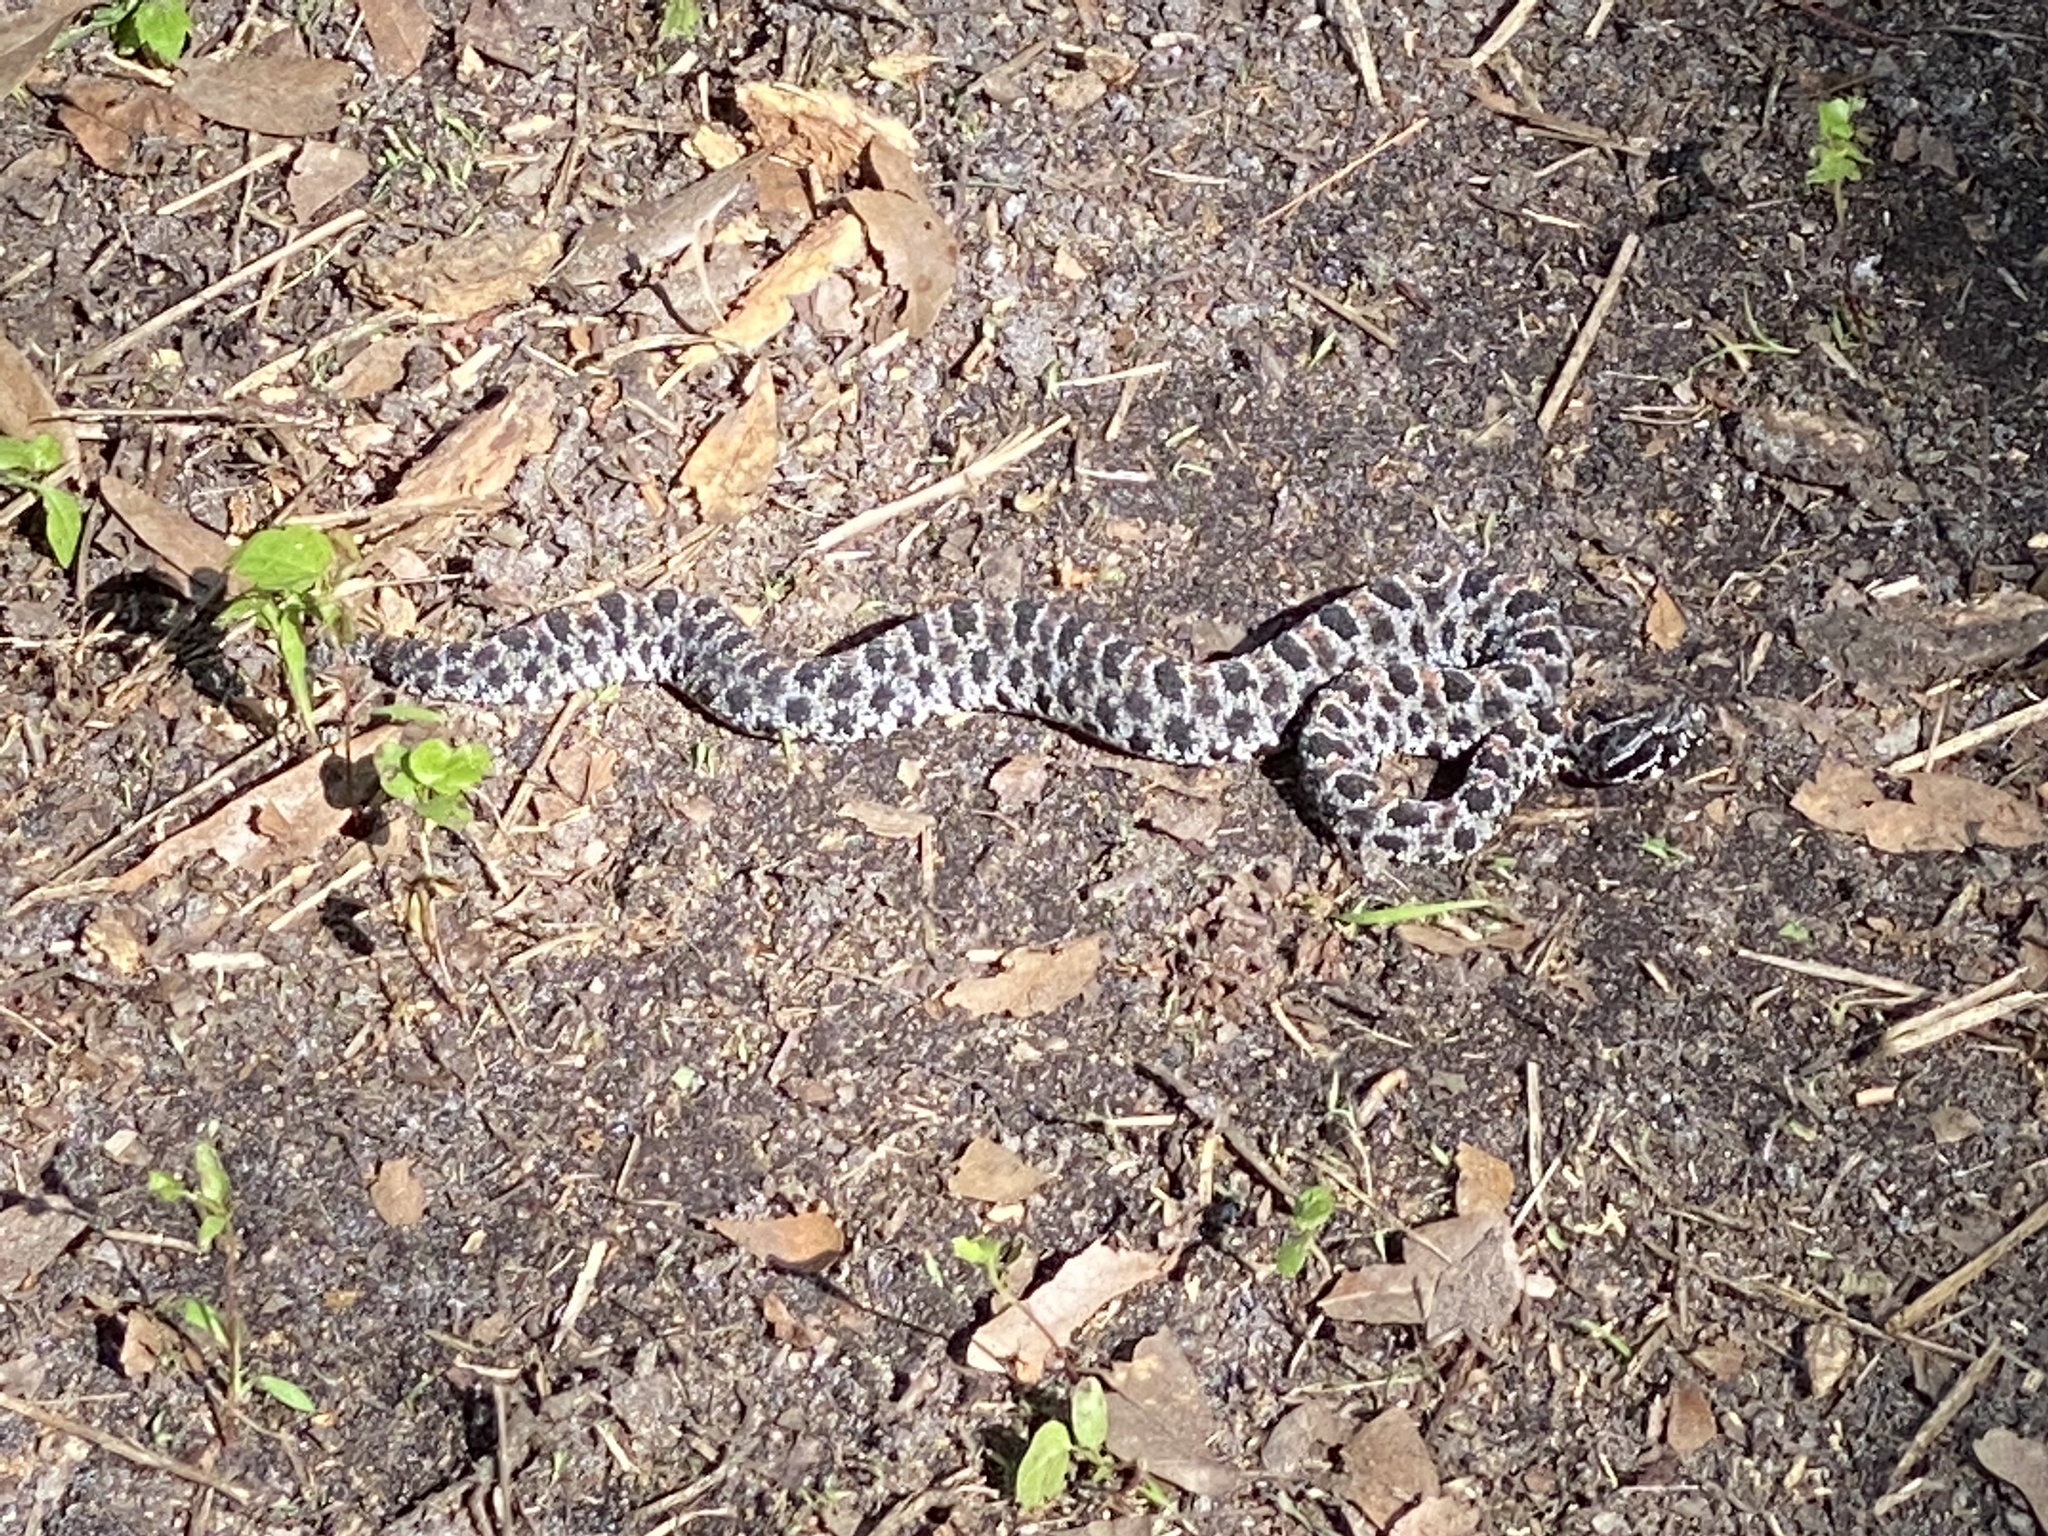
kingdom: Animalia
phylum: Chordata
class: Squamata
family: Viperidae
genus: Sistrurus
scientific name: Sistrurus miliarius
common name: Pygmy rattlesnake
